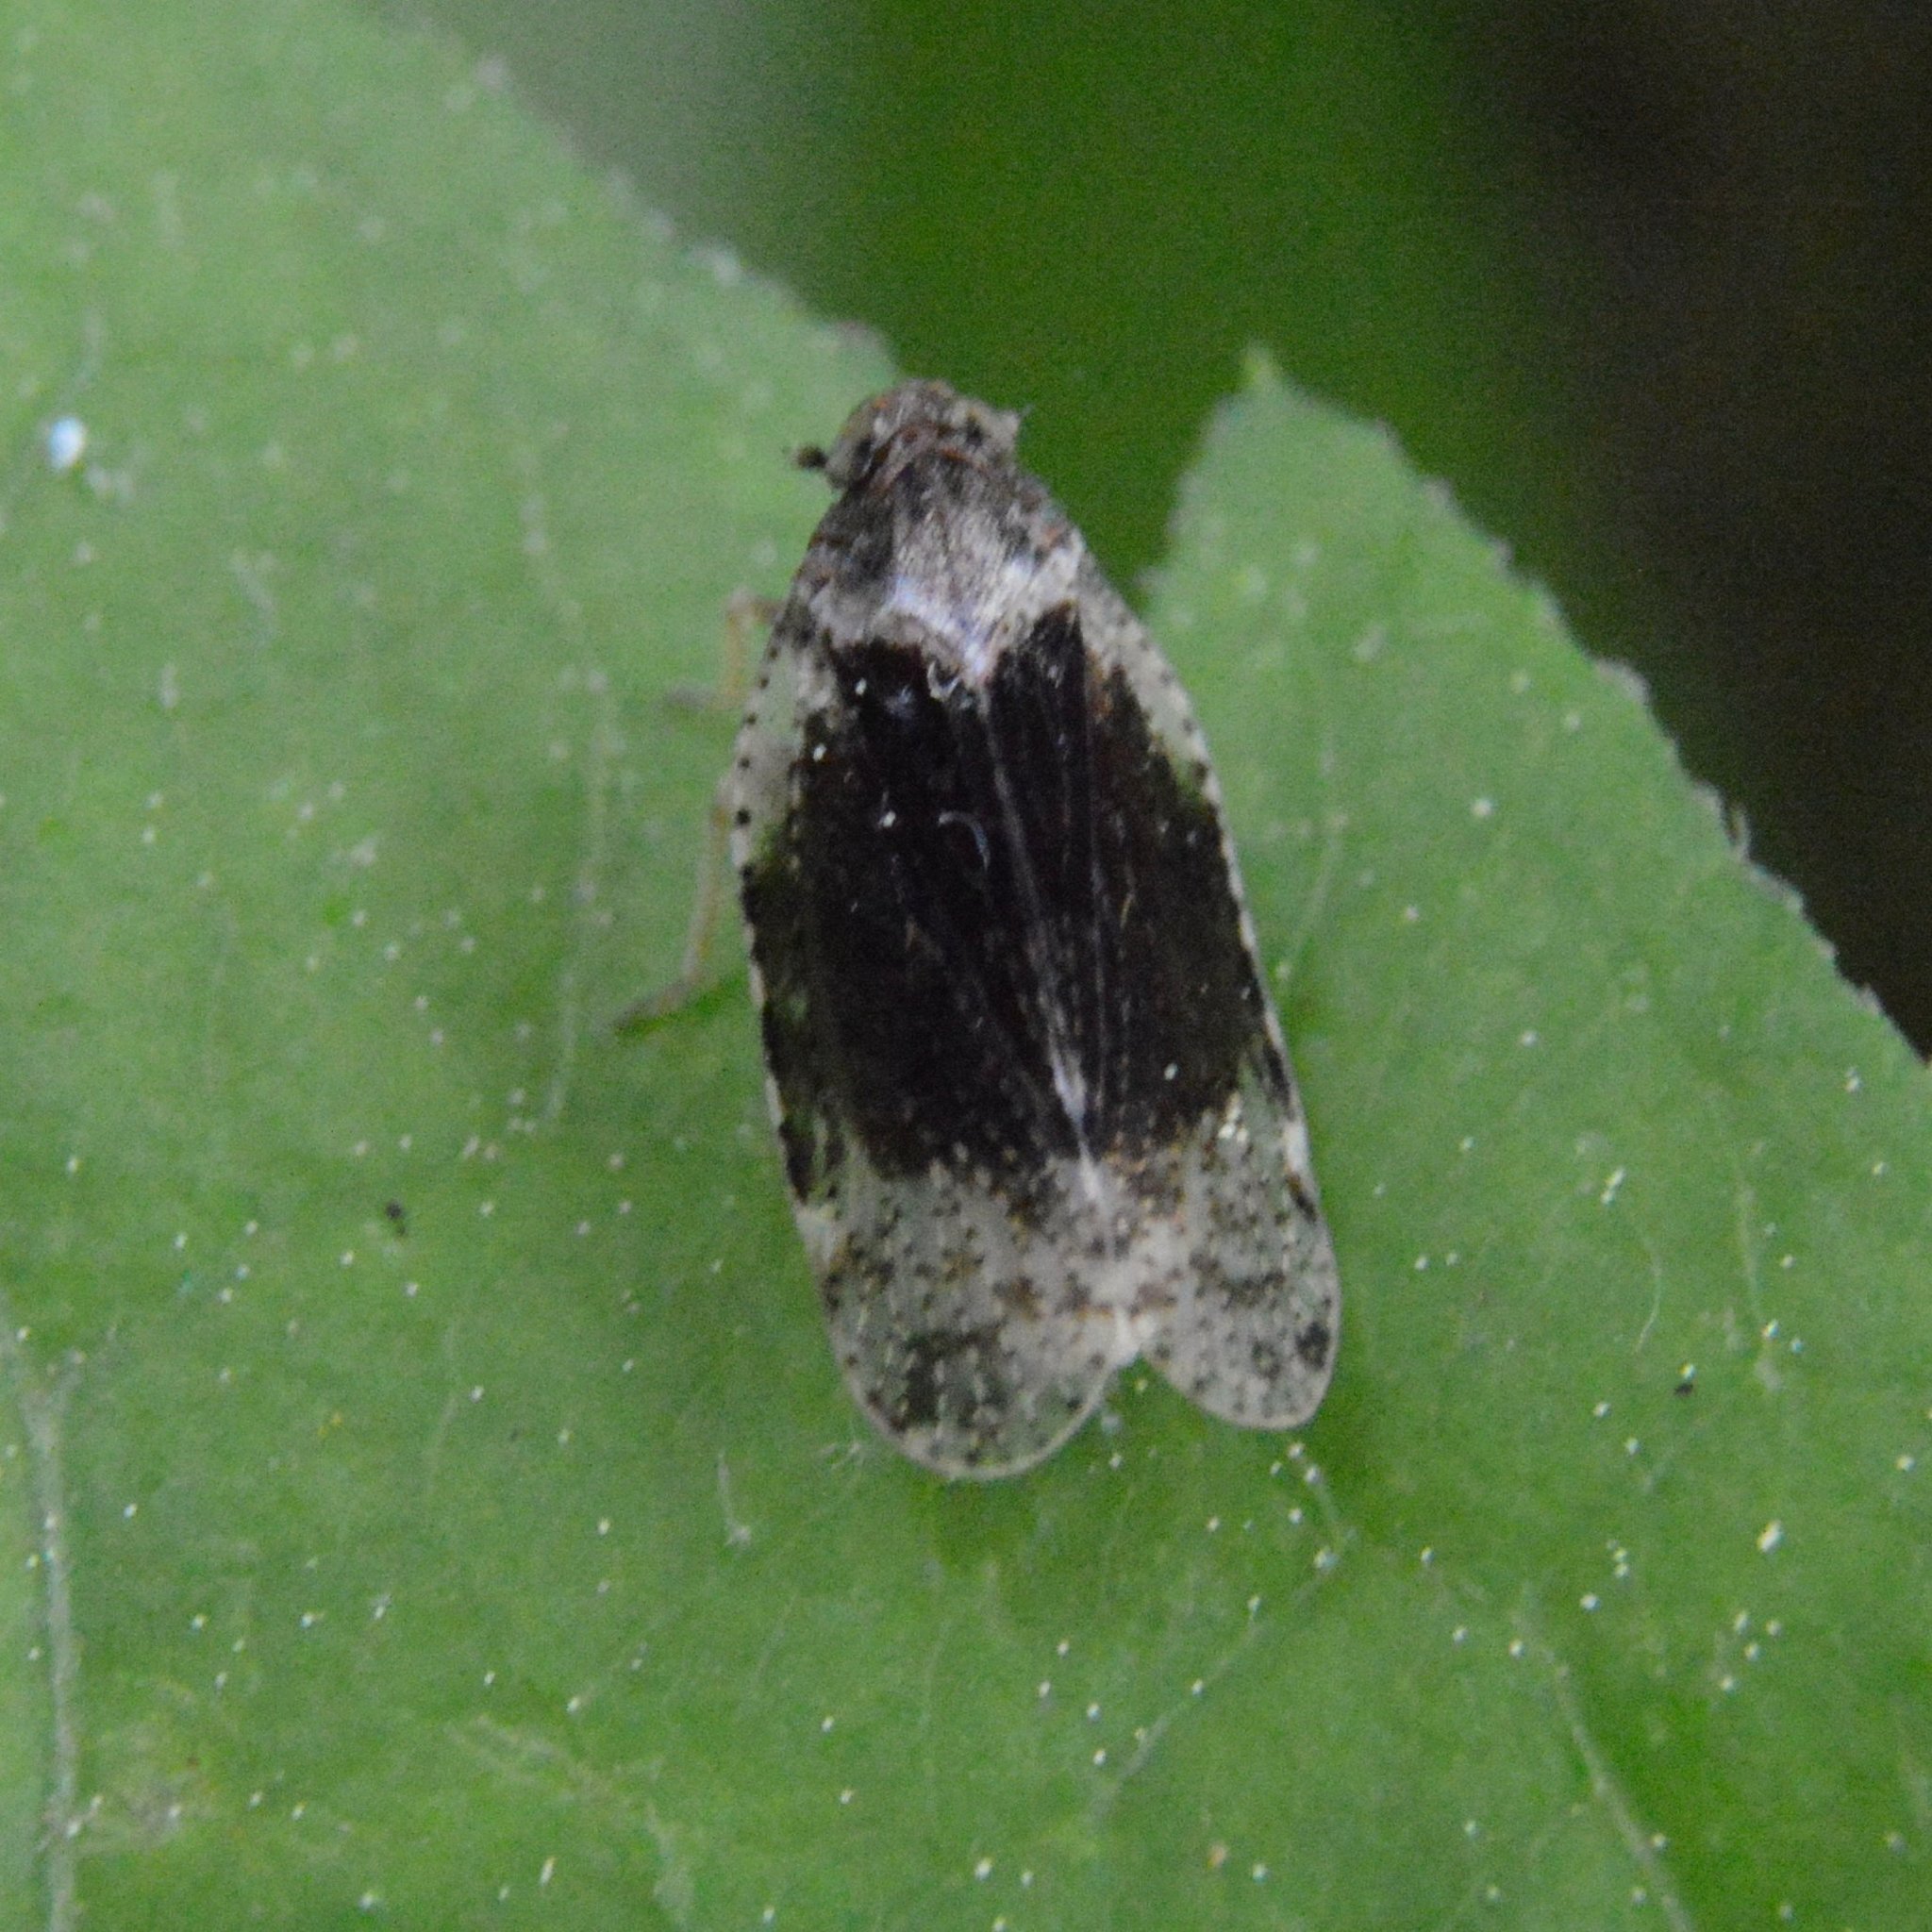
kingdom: Animalia
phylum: Arthropoda
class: Insecta
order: Hemiptera
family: Cixiidae
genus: Cixius
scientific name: Cixius apicalis
